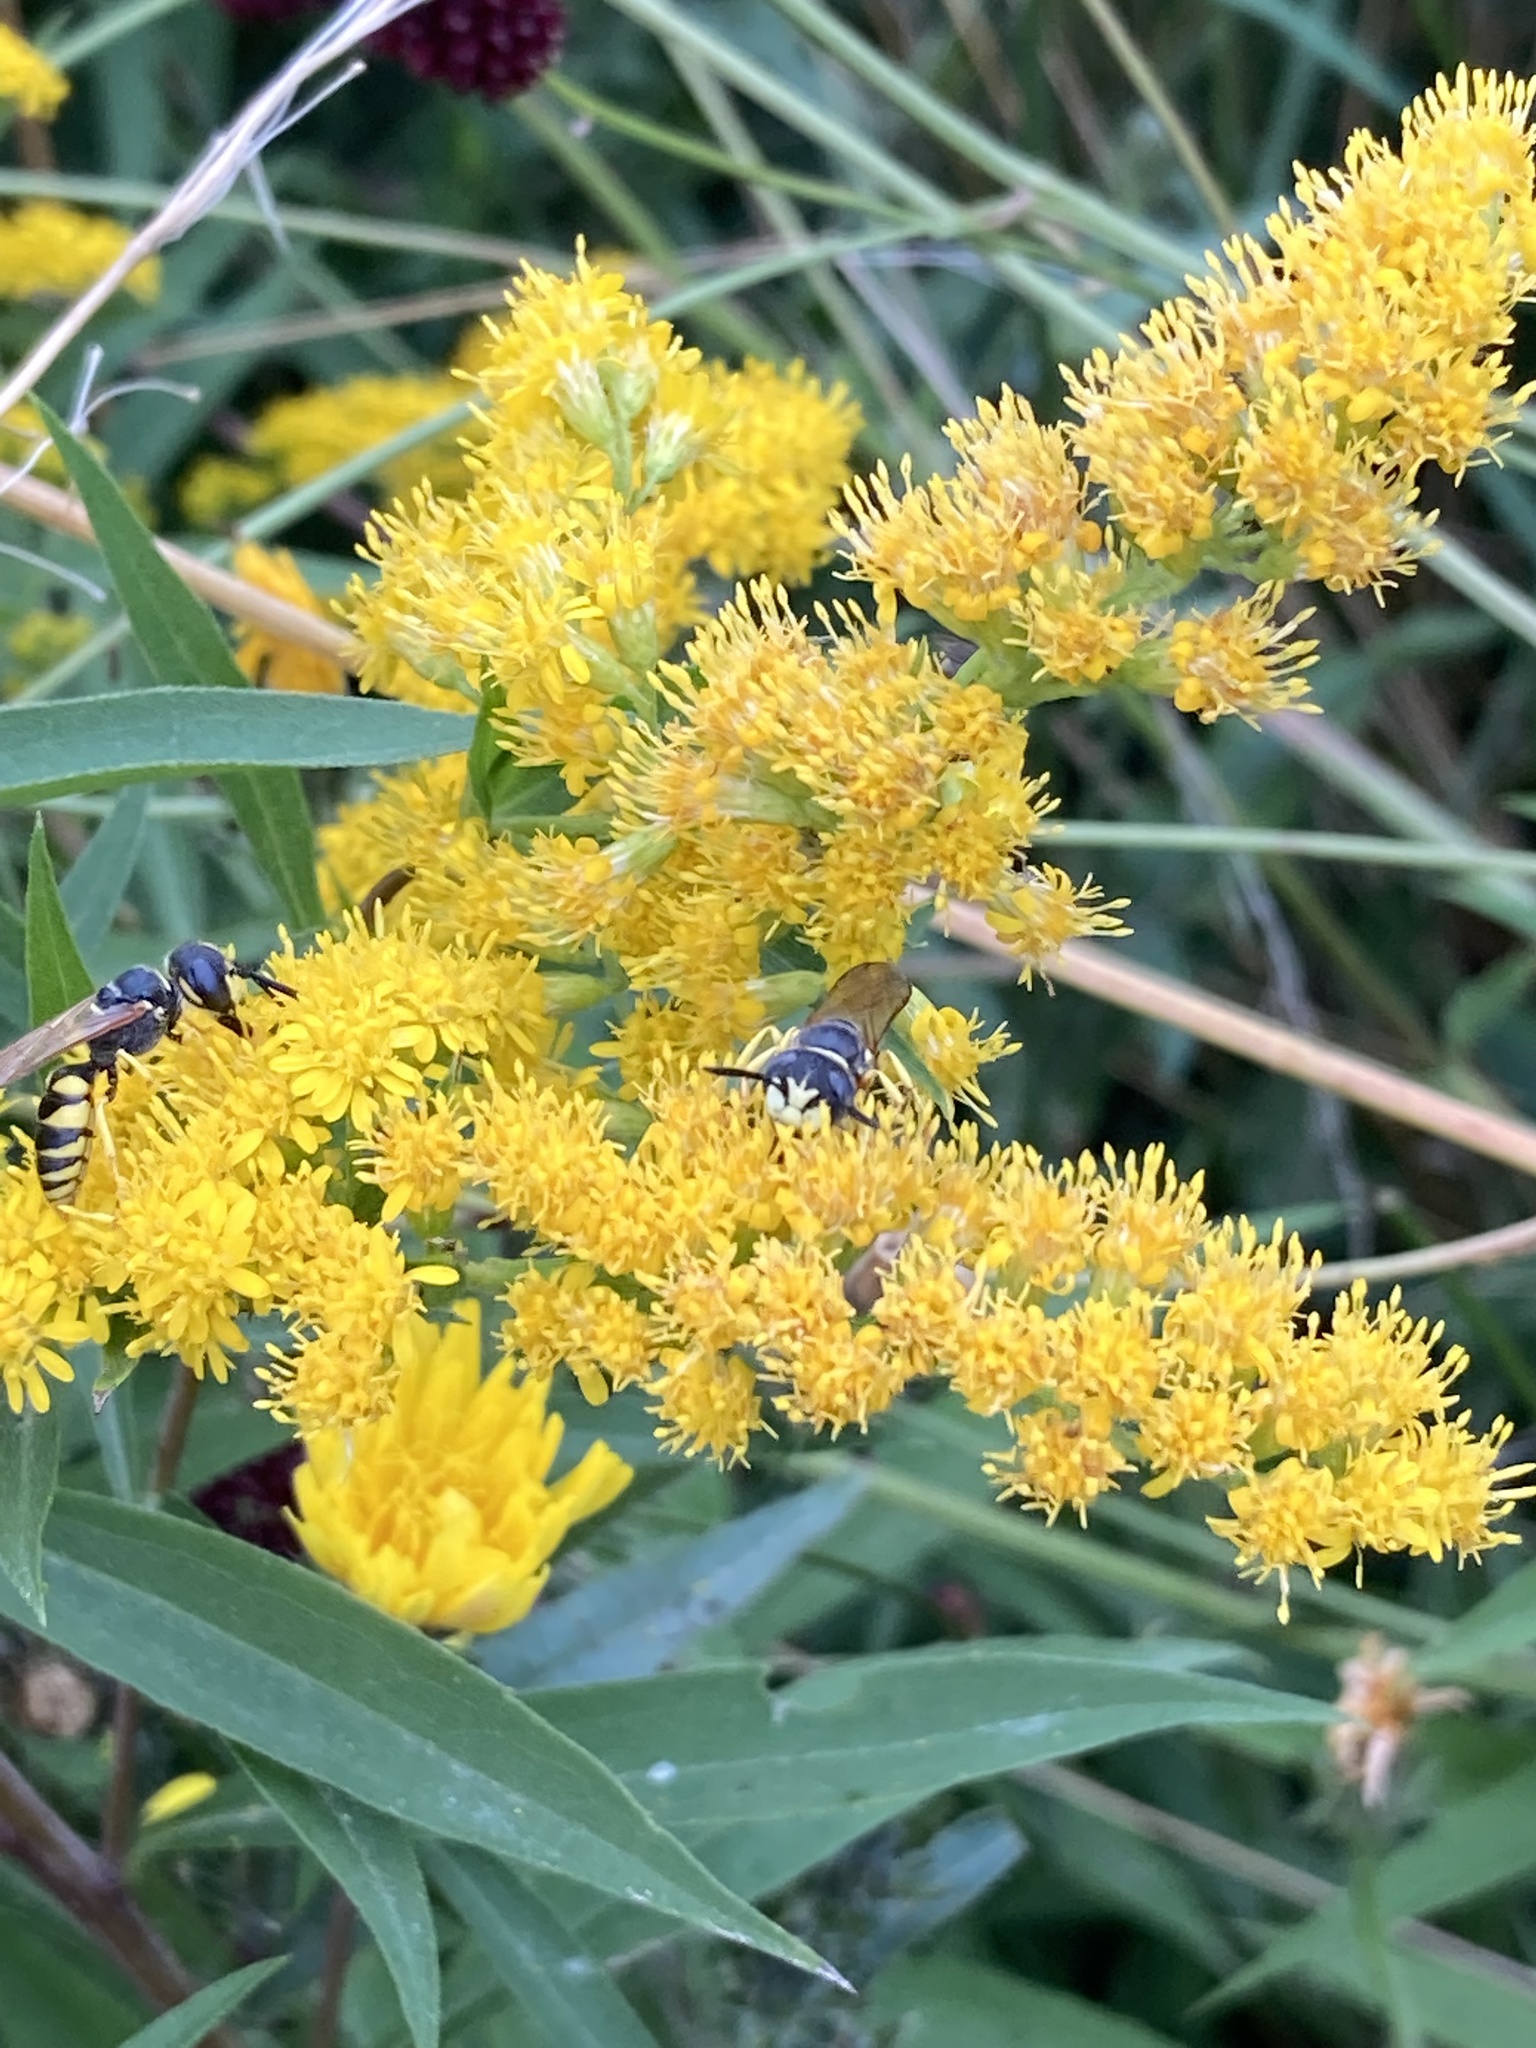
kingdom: Animalia
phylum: Arthropoda
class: Insecta
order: Hymenoptera
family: Crabronidae
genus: Philanthus
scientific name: Philanthus triangulum
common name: Bee wolf
